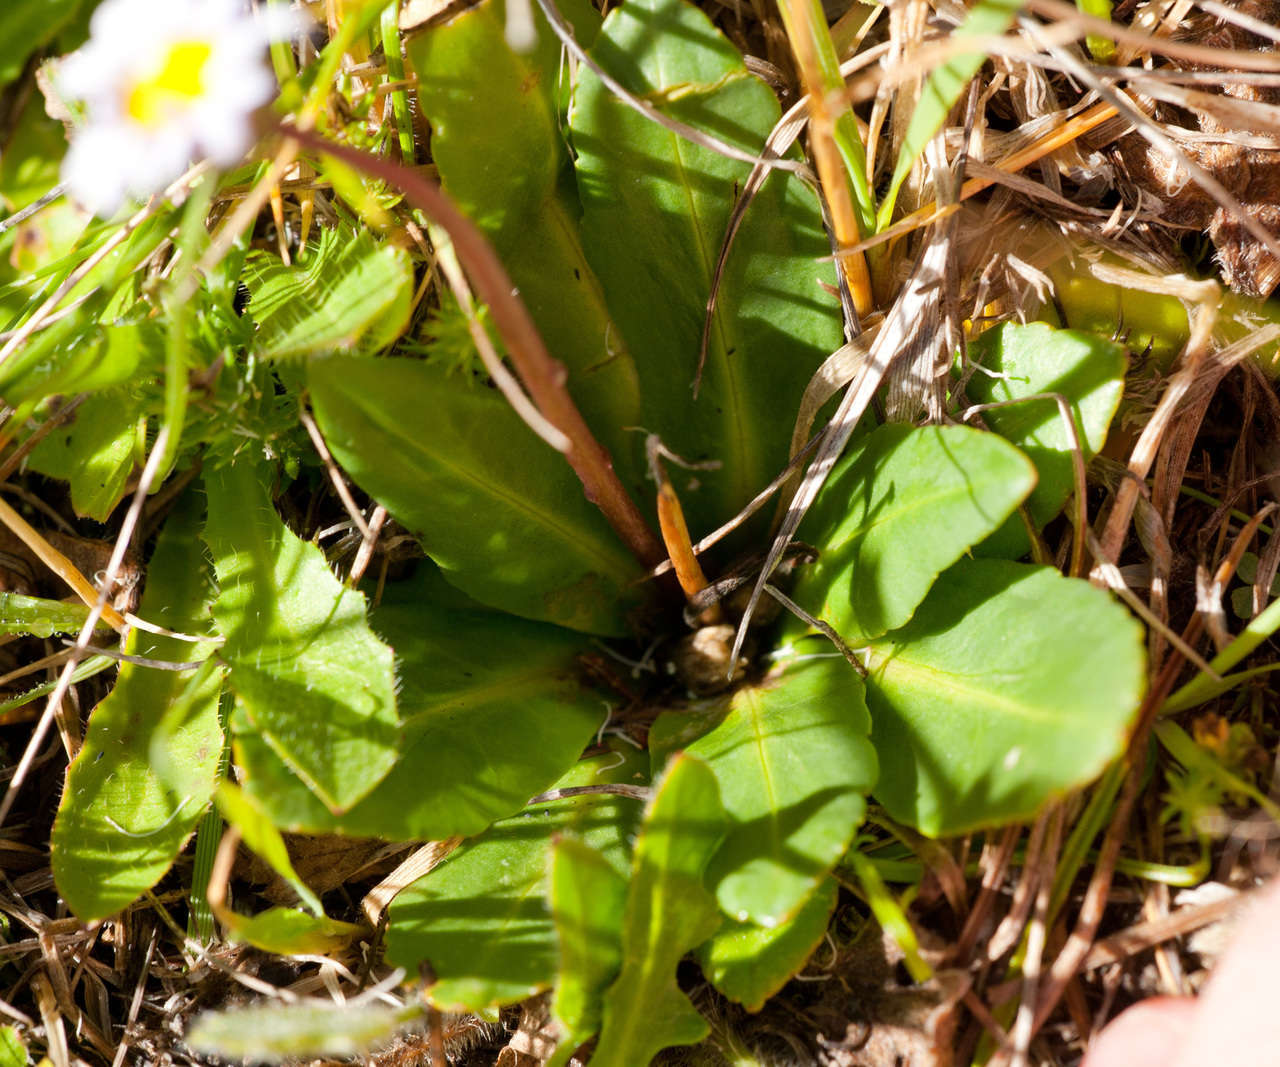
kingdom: Plantae
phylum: Tracheophyta
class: Magnoliopsida
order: Asterales
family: Asteraceae
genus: Brachyscome
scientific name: Brachyscome decipiens
